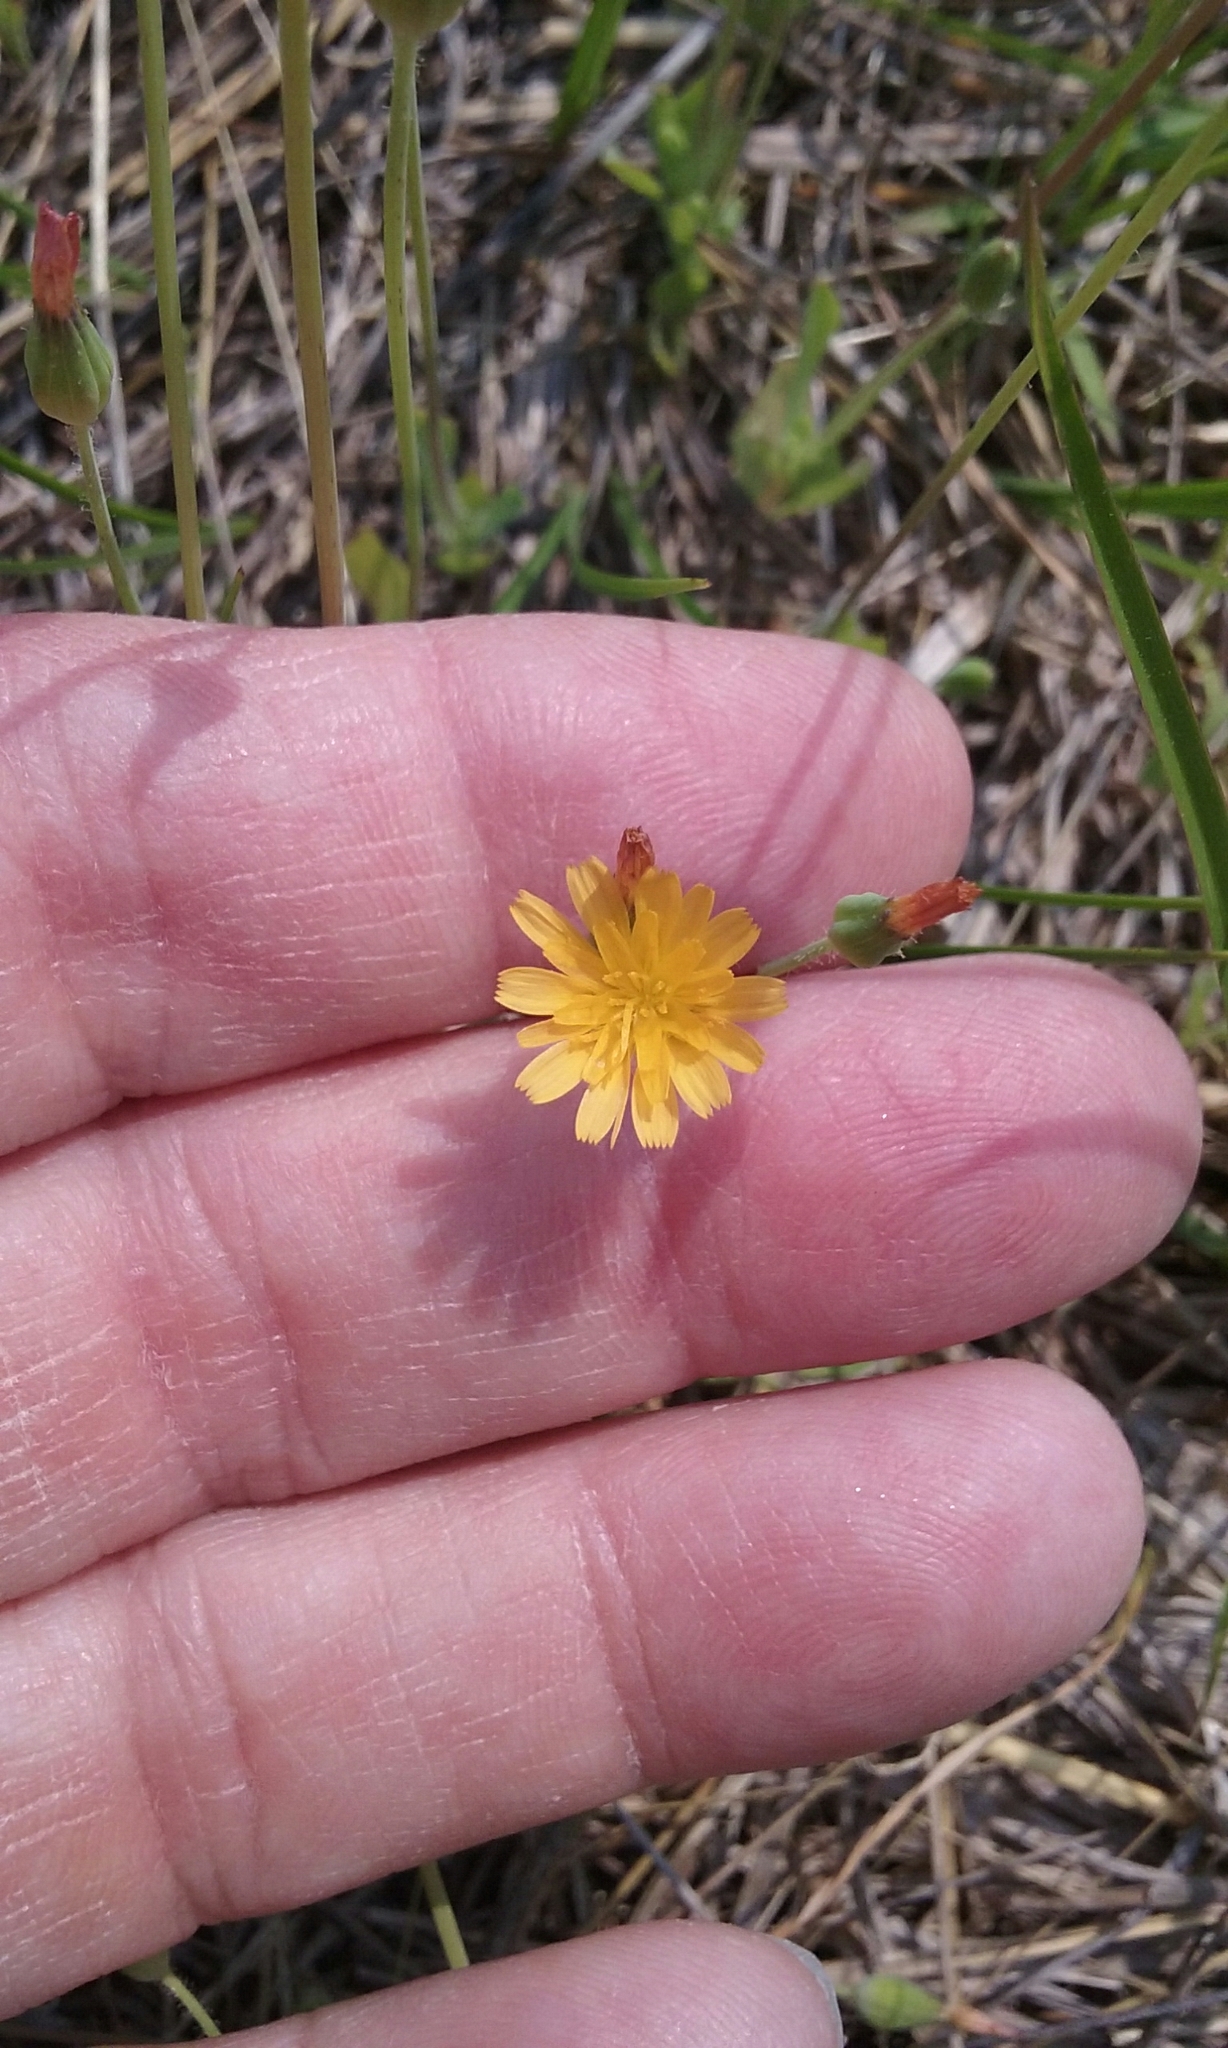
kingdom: Plantae
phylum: Tracheophyta
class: Magnoliopsida
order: Asterales
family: Asteraceae
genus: Krigia
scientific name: Krigia virginica
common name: Virginia dwarf-dandelion
